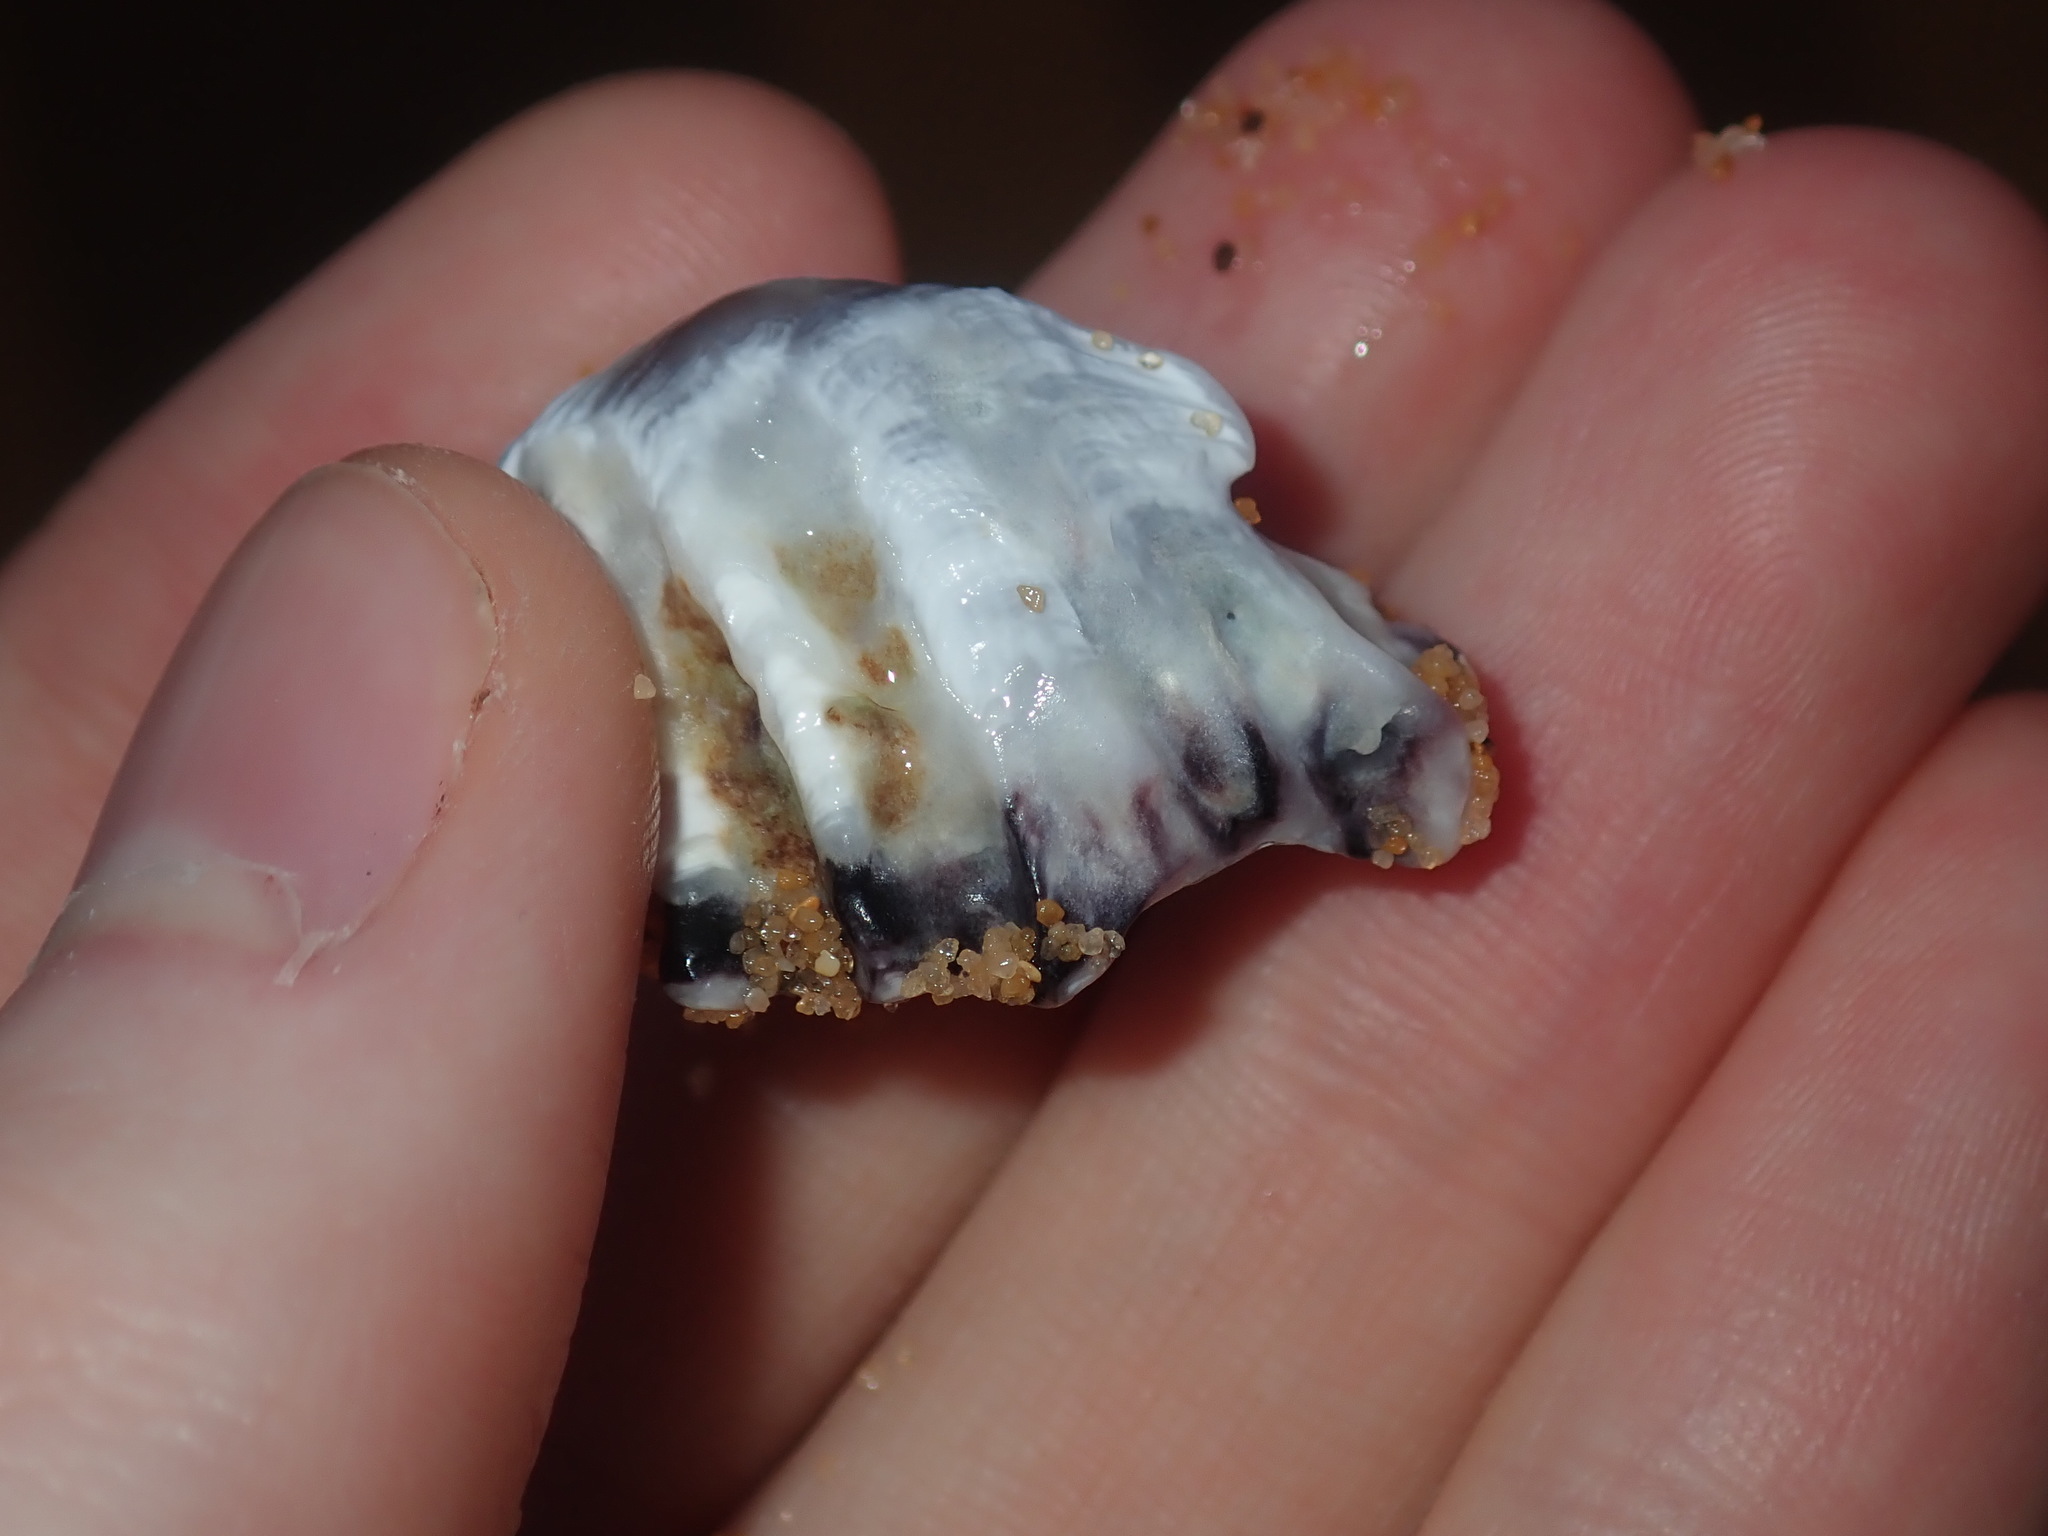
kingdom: Animalia
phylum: Mollusca
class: Bivalvia
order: Ostreida
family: Ostreidae
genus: Saccostrea
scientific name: Saccostrea glomerata
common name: Sydney cupped oyster
